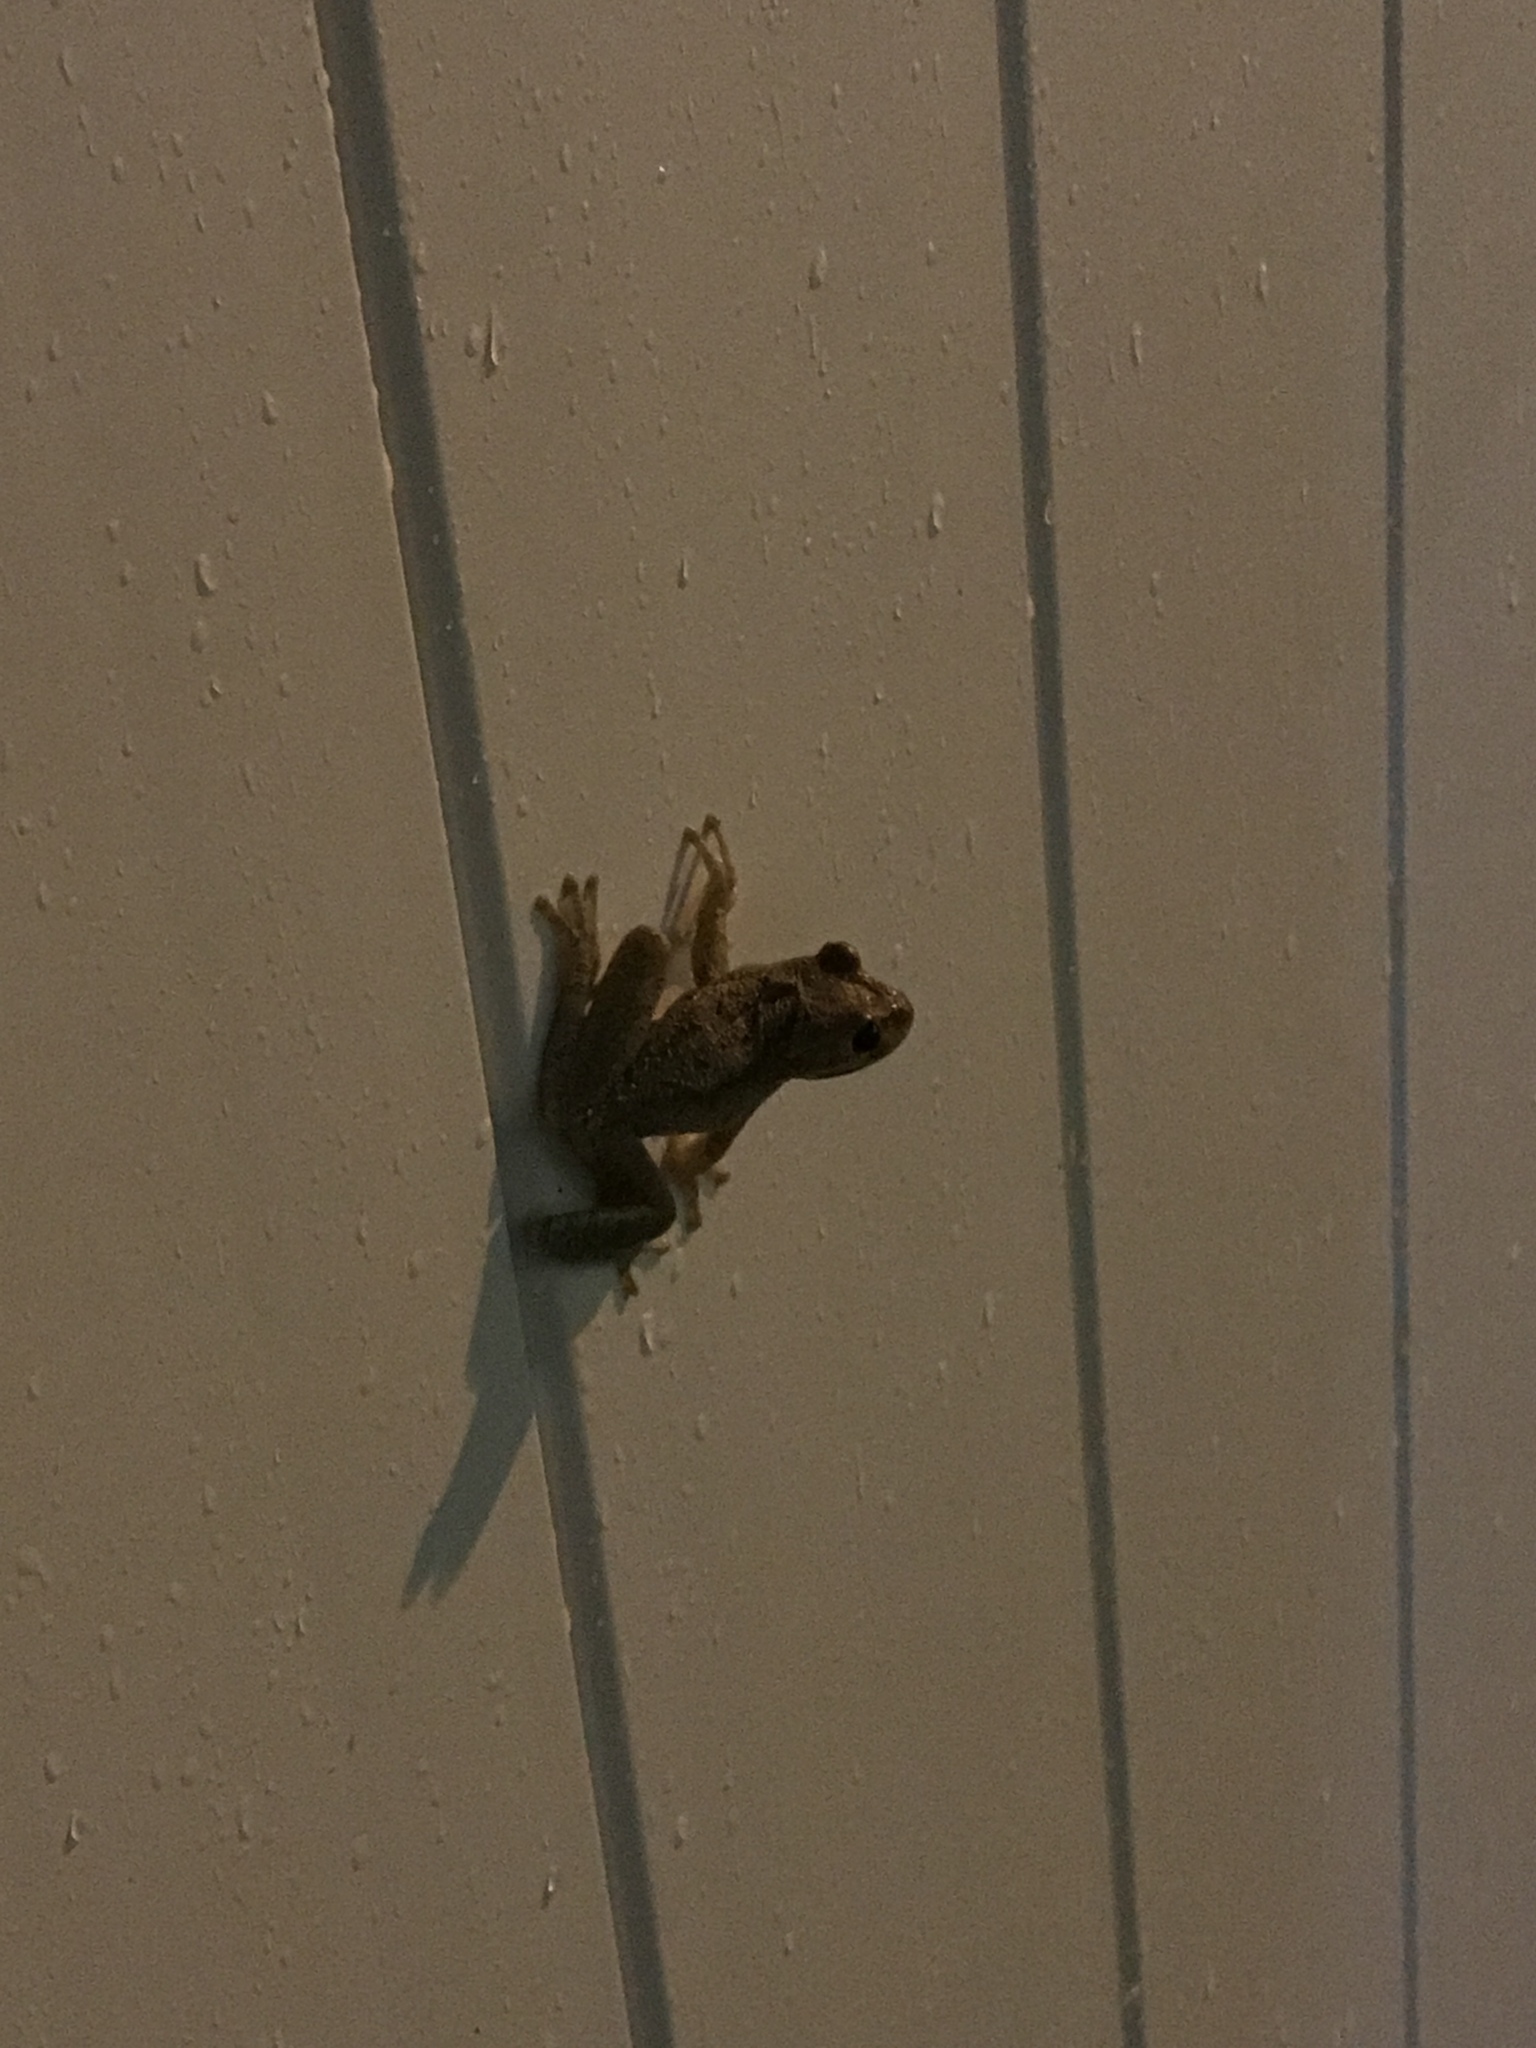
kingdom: Animalia
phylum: Chordata
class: Amphibia
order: Anura
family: Hylidae
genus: Osteopilus
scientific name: Osteopilus septentrionalis
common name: Cuban treefrog
